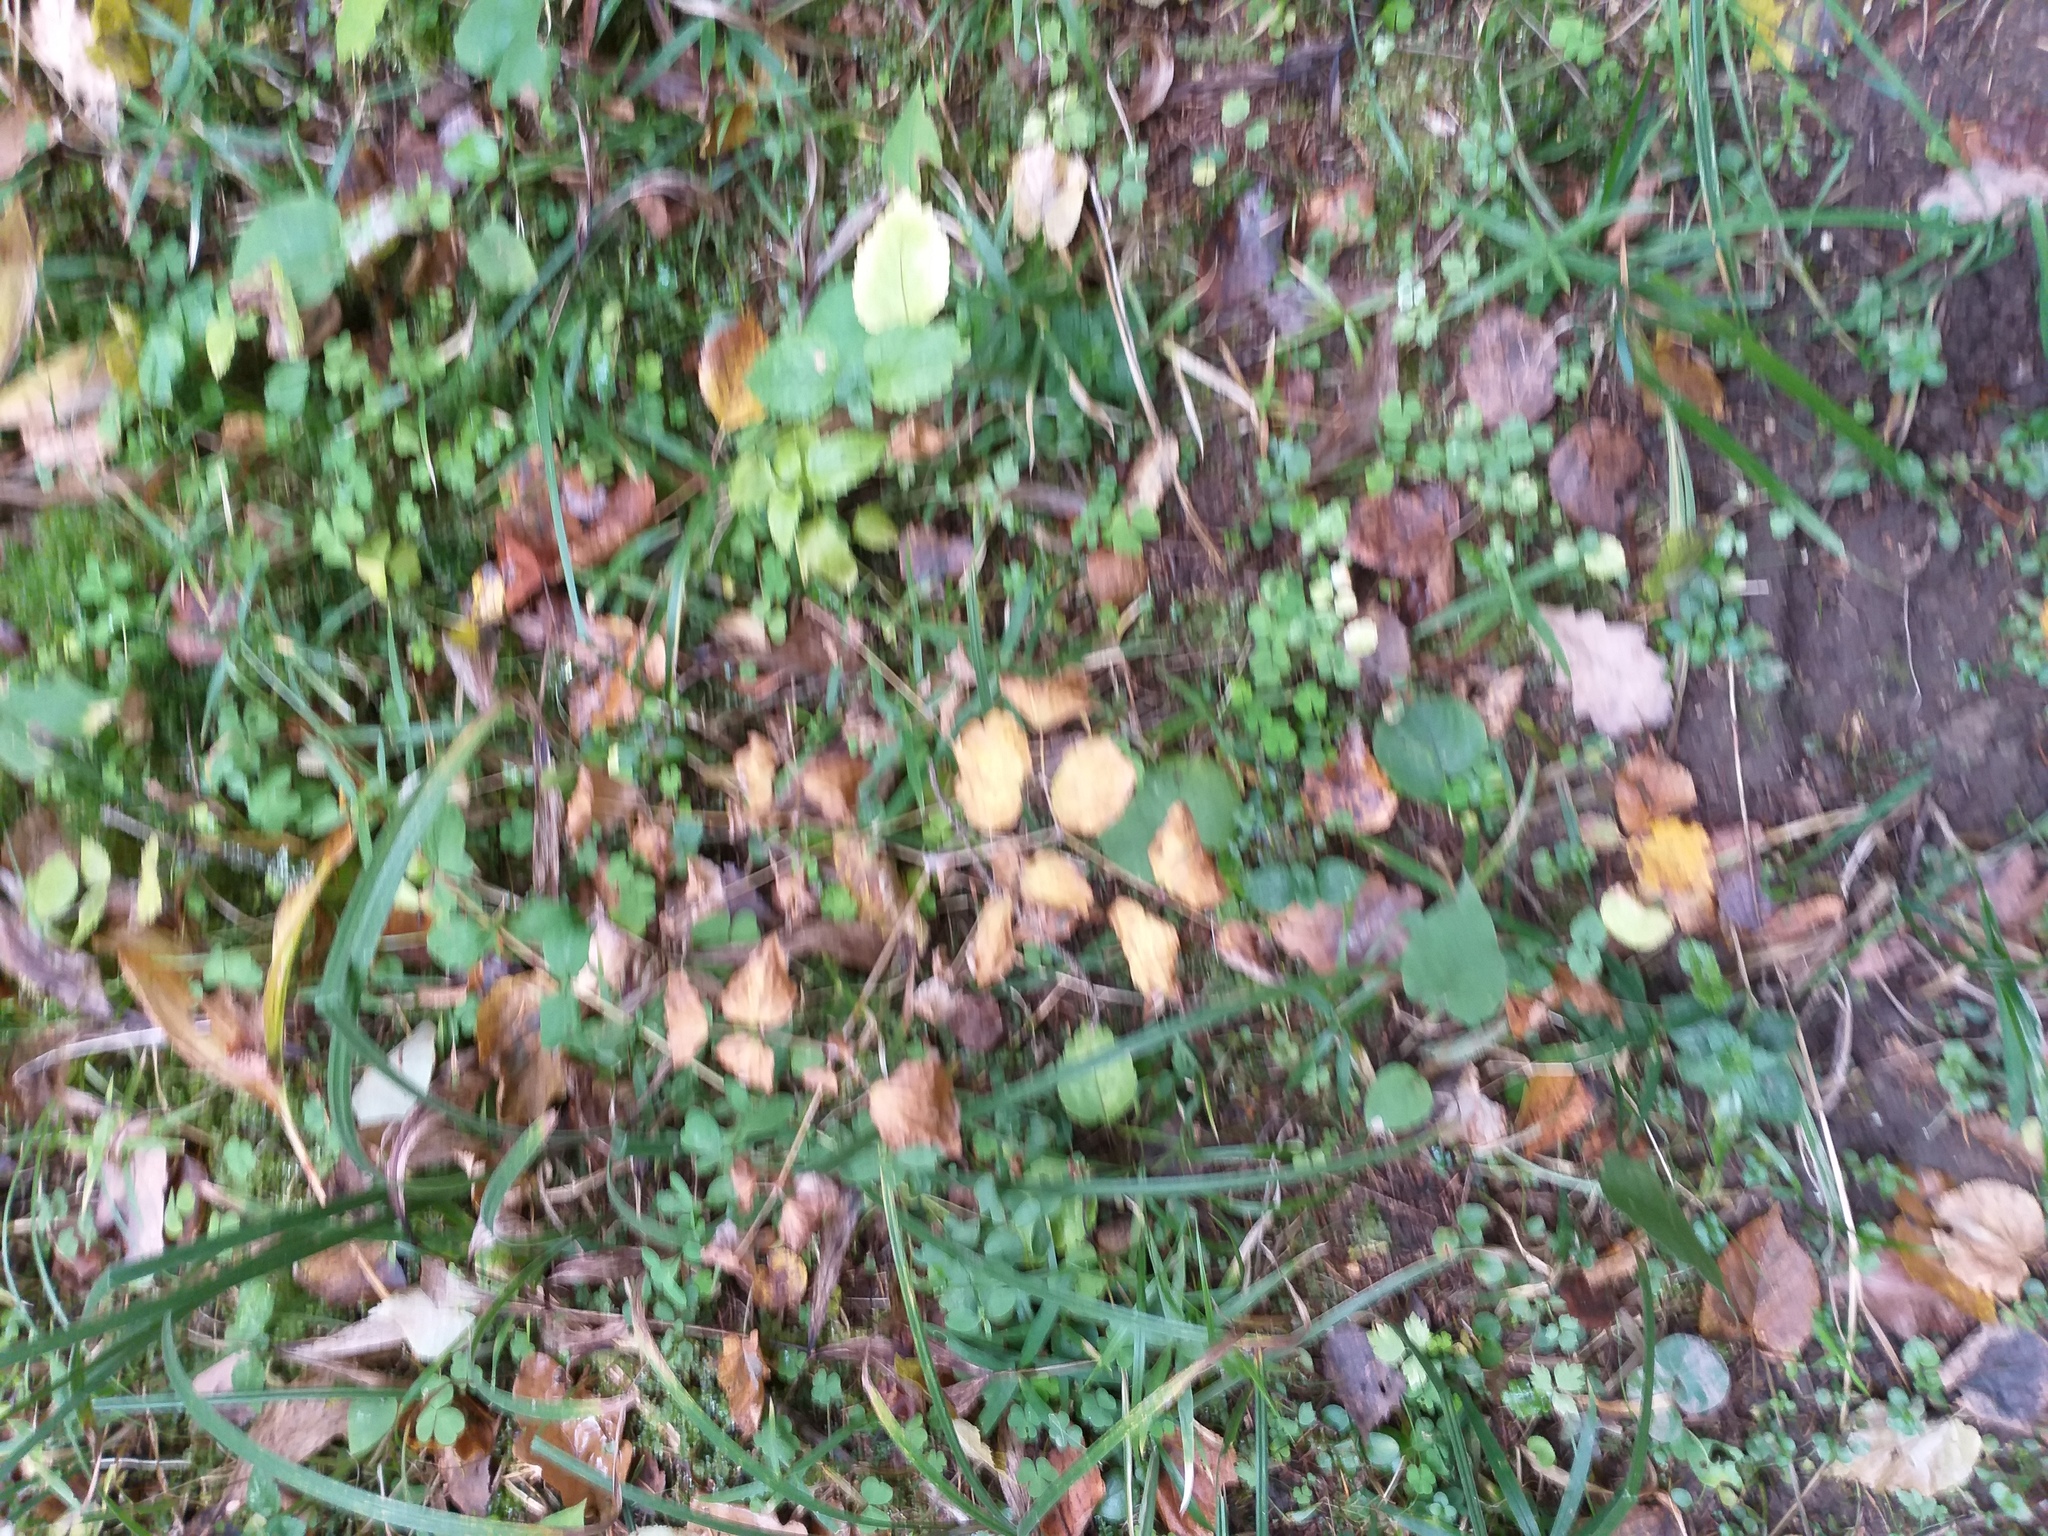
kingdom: Plantae
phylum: Tracheophyta
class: Magnoliopsida
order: Ranunculales
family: Ranunculaceae
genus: Thalictrum
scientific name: Thalictrum aquilegiifolium
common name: French meadow-rue
